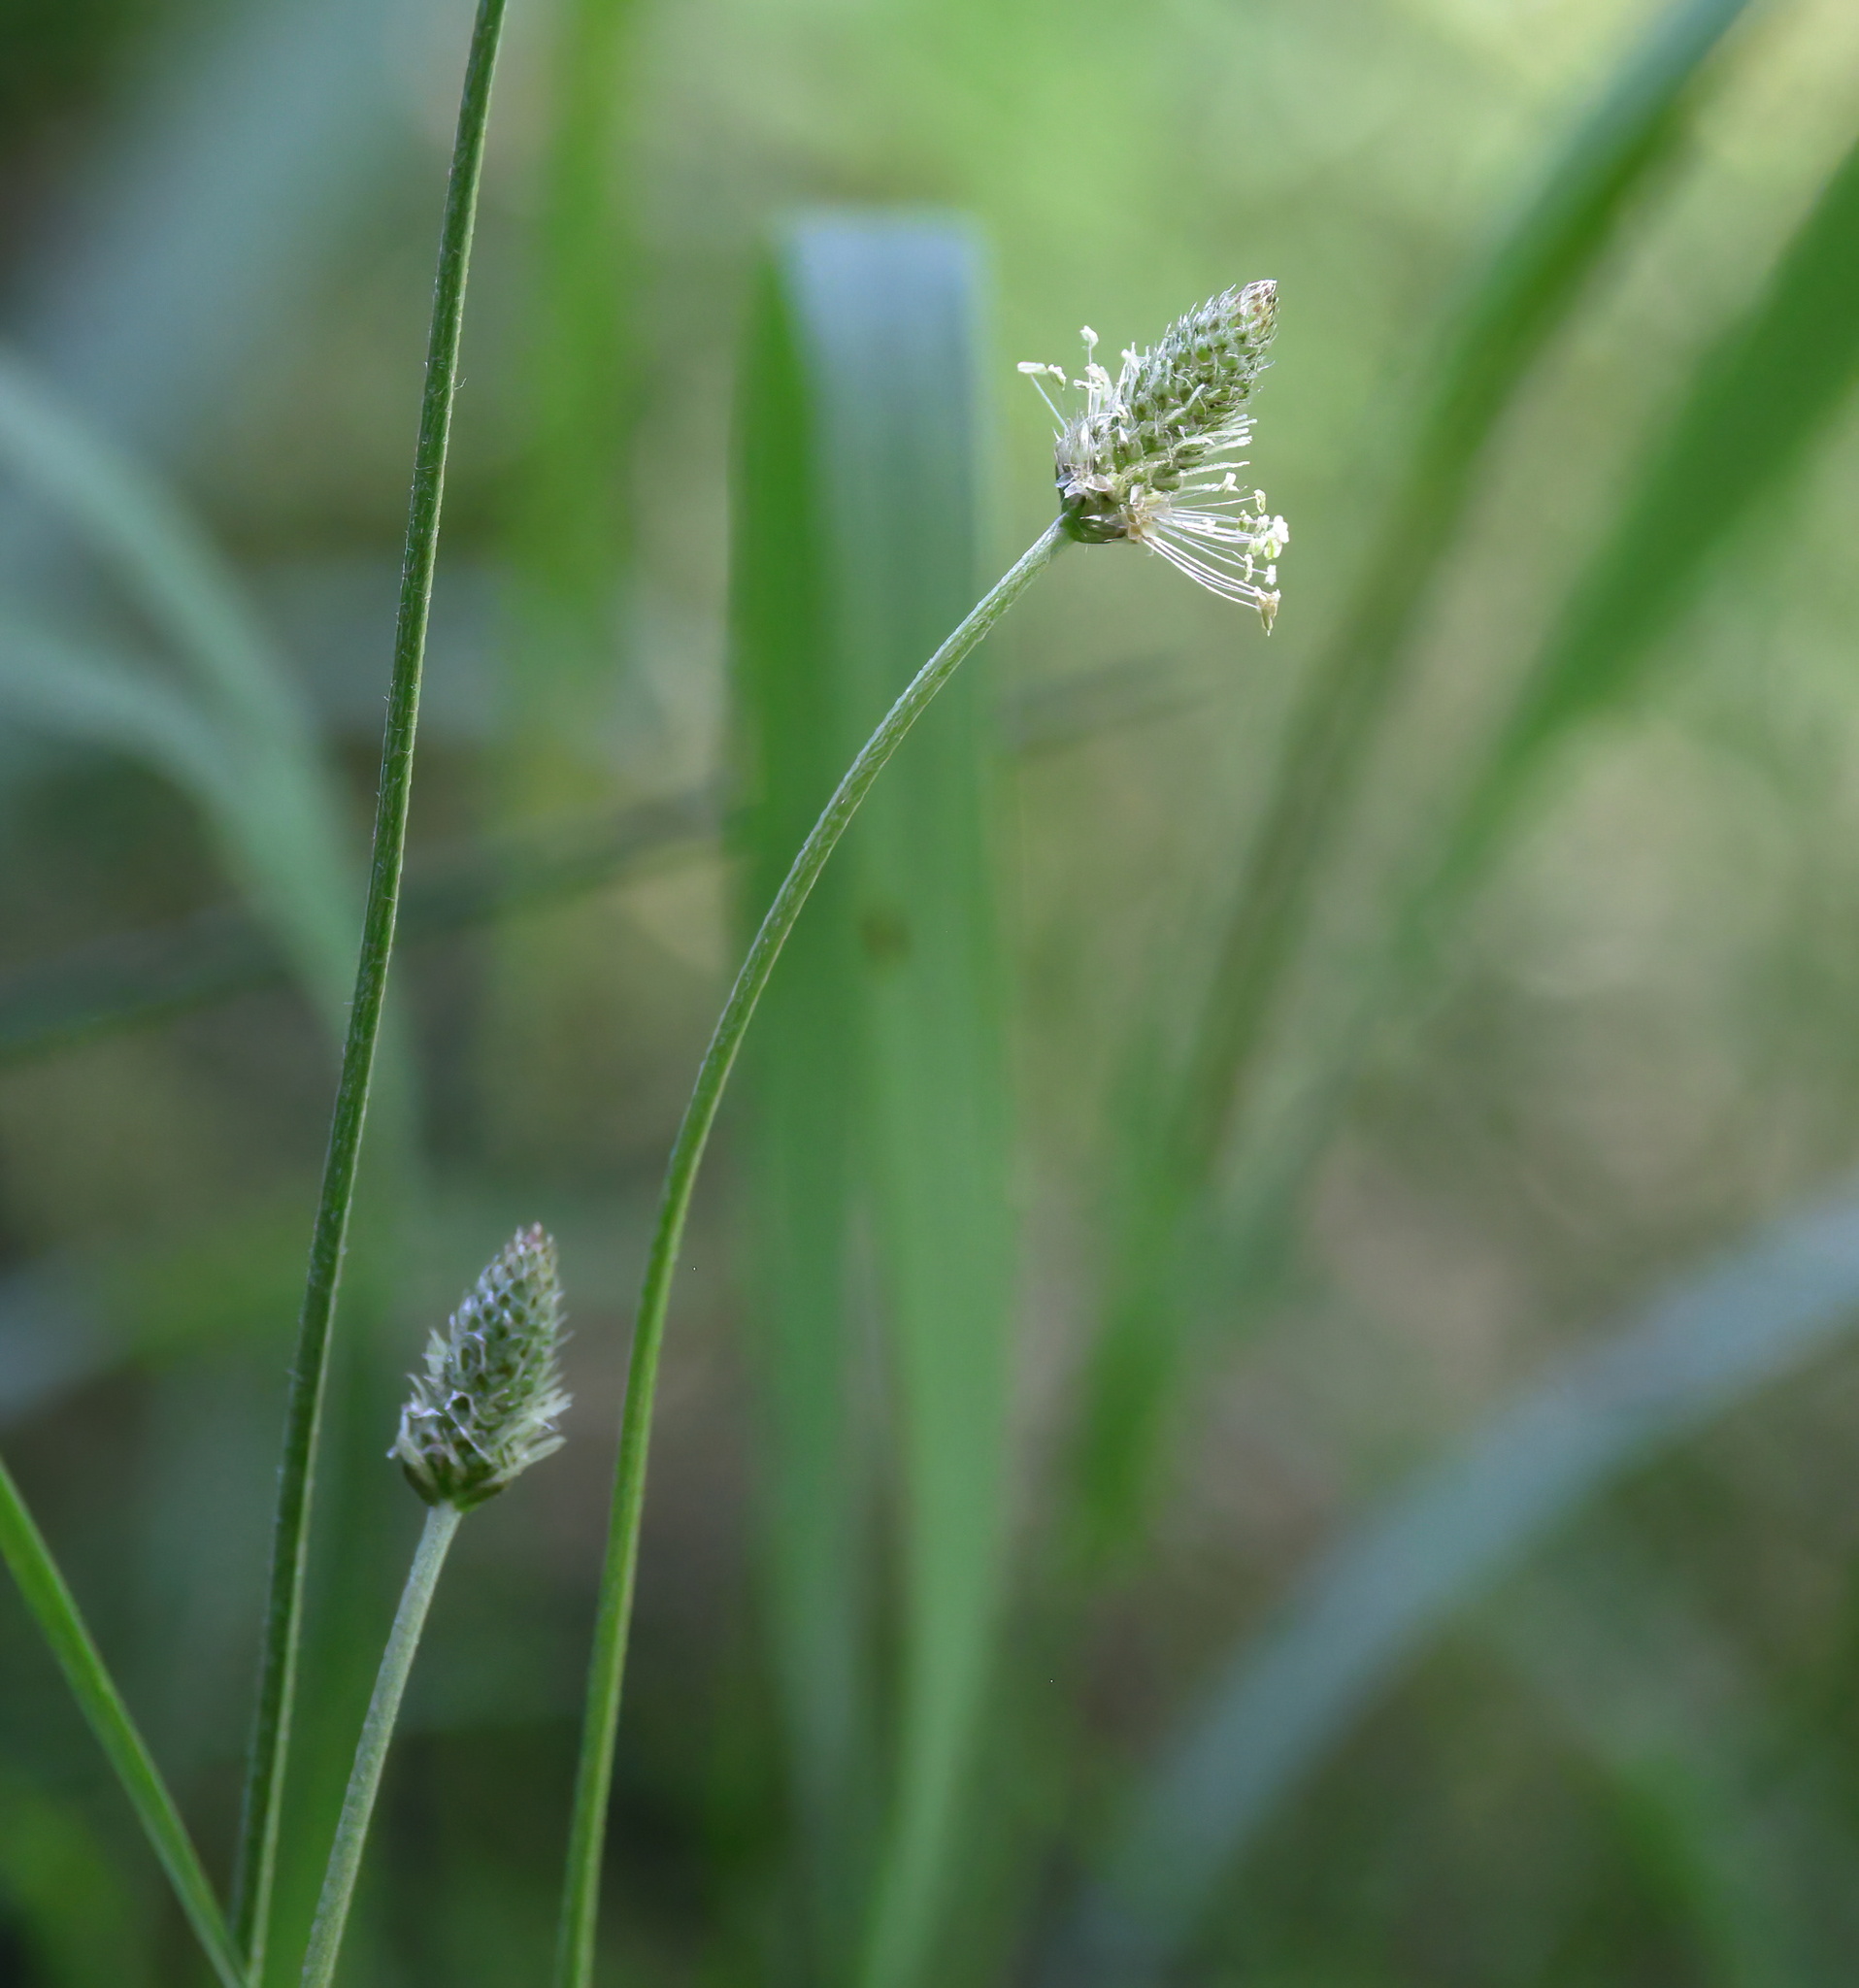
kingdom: Plantae
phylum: Tracheophyta
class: Magnoliopsida
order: Lamiales
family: Plantaginaceae
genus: Plantago
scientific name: Plantago lanceolata
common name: Ribwort plantain
